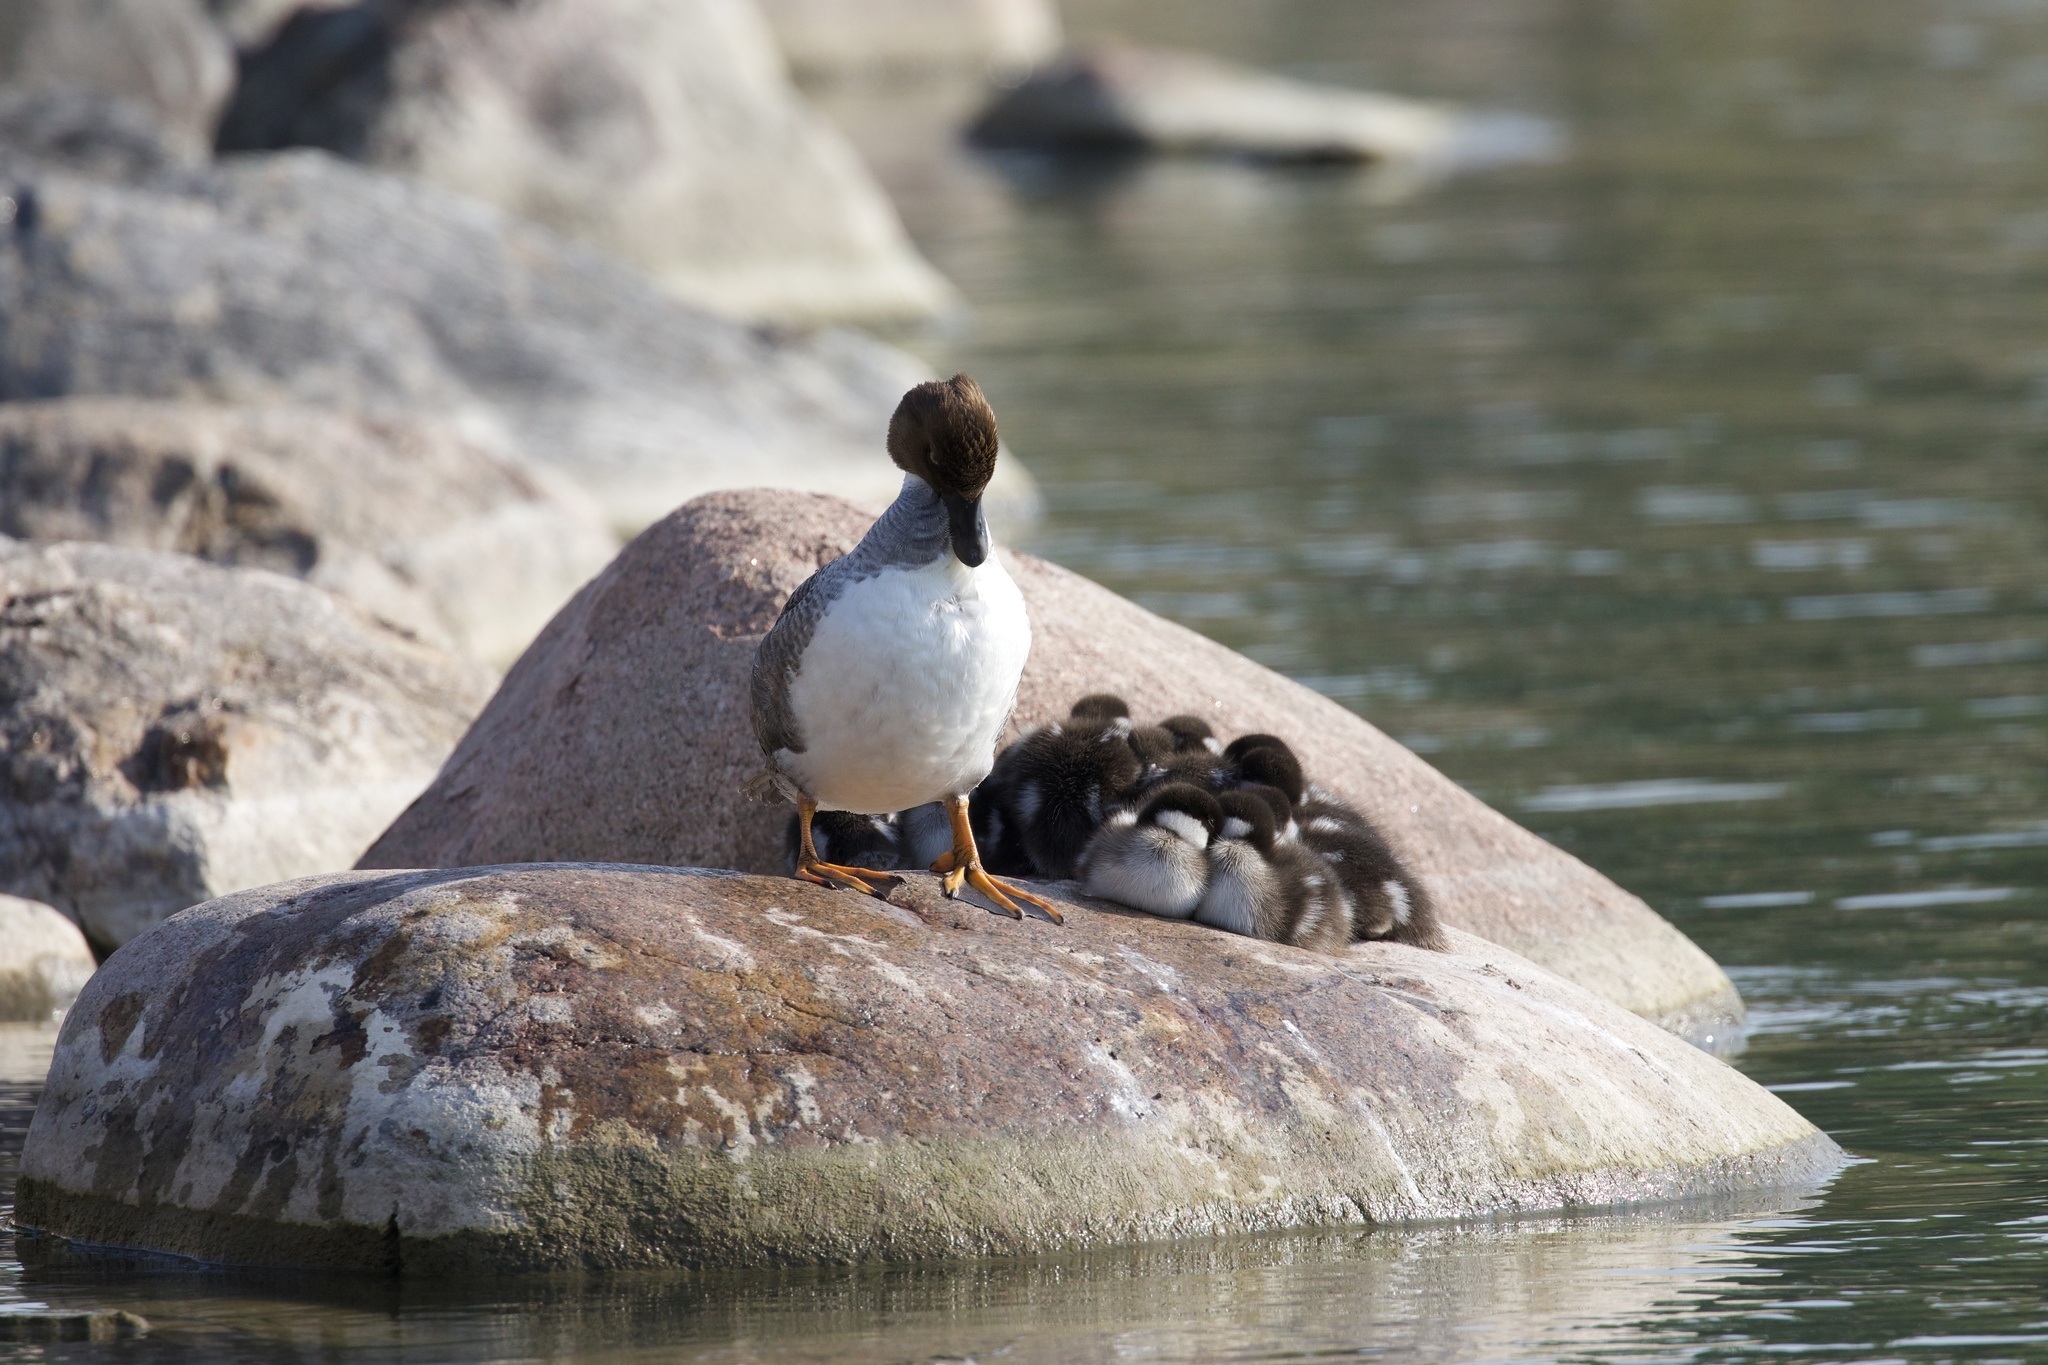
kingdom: Animalia
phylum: Chordata
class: Aves
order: Anseriformes
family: Anatidae
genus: Bucephala
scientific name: Bucephala clangula
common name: Common goldeneye
